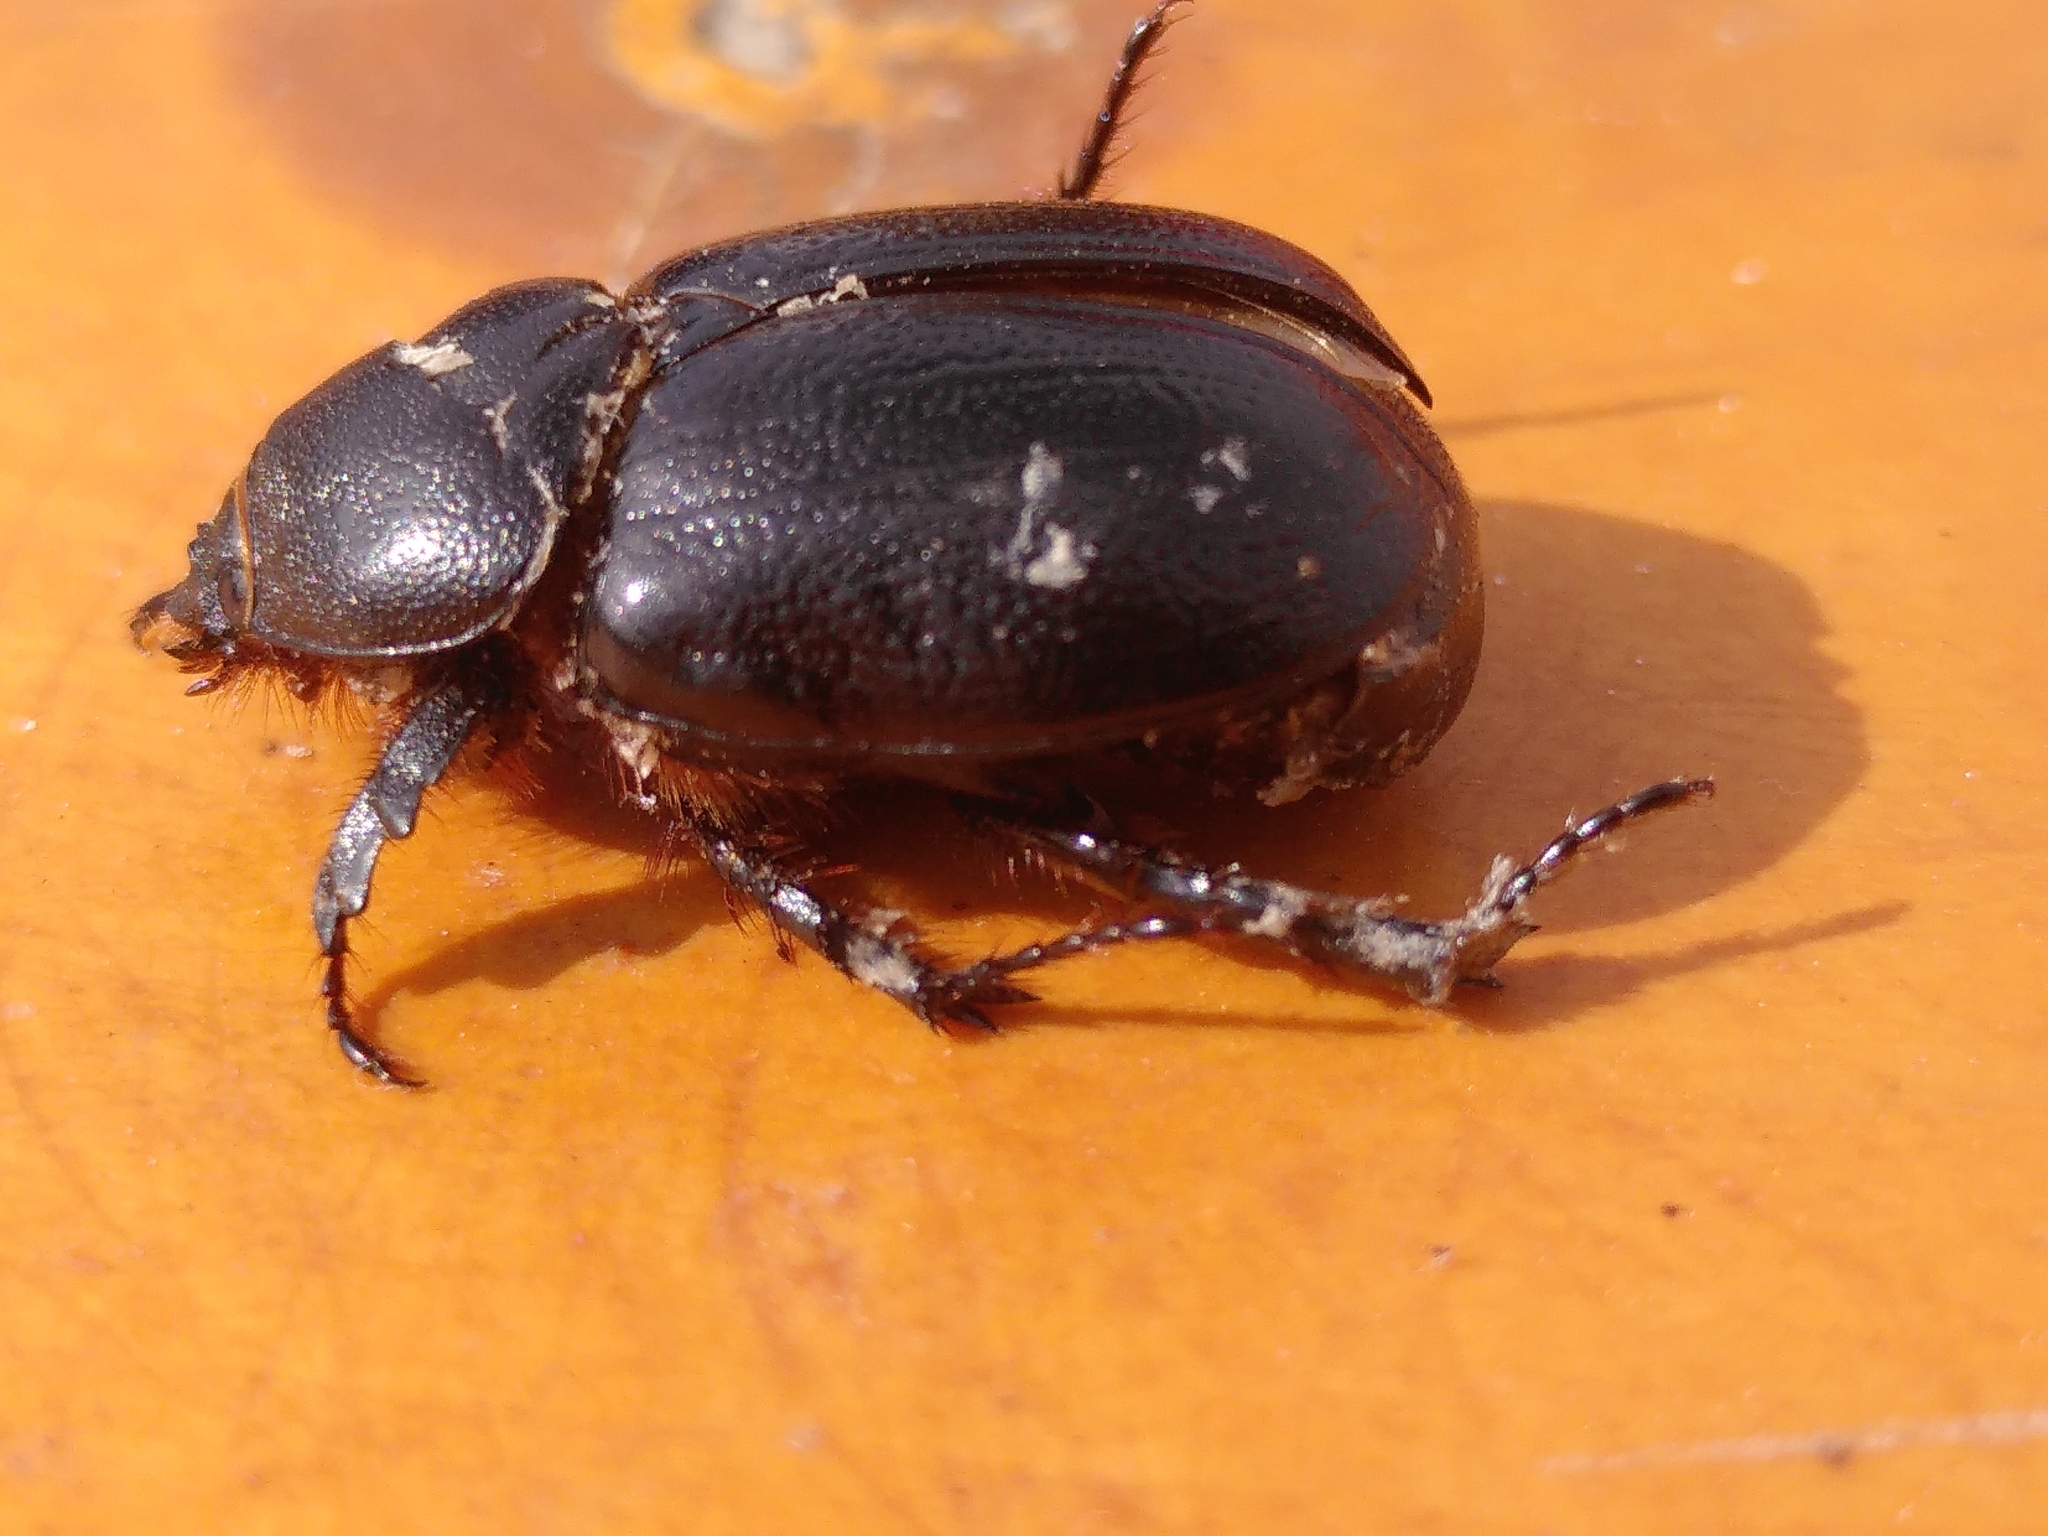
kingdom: Animalia
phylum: Arthropoda
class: Insecta
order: Coleoptera
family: Scarabaeidae
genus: Pentodon
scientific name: Pentodon bidens
